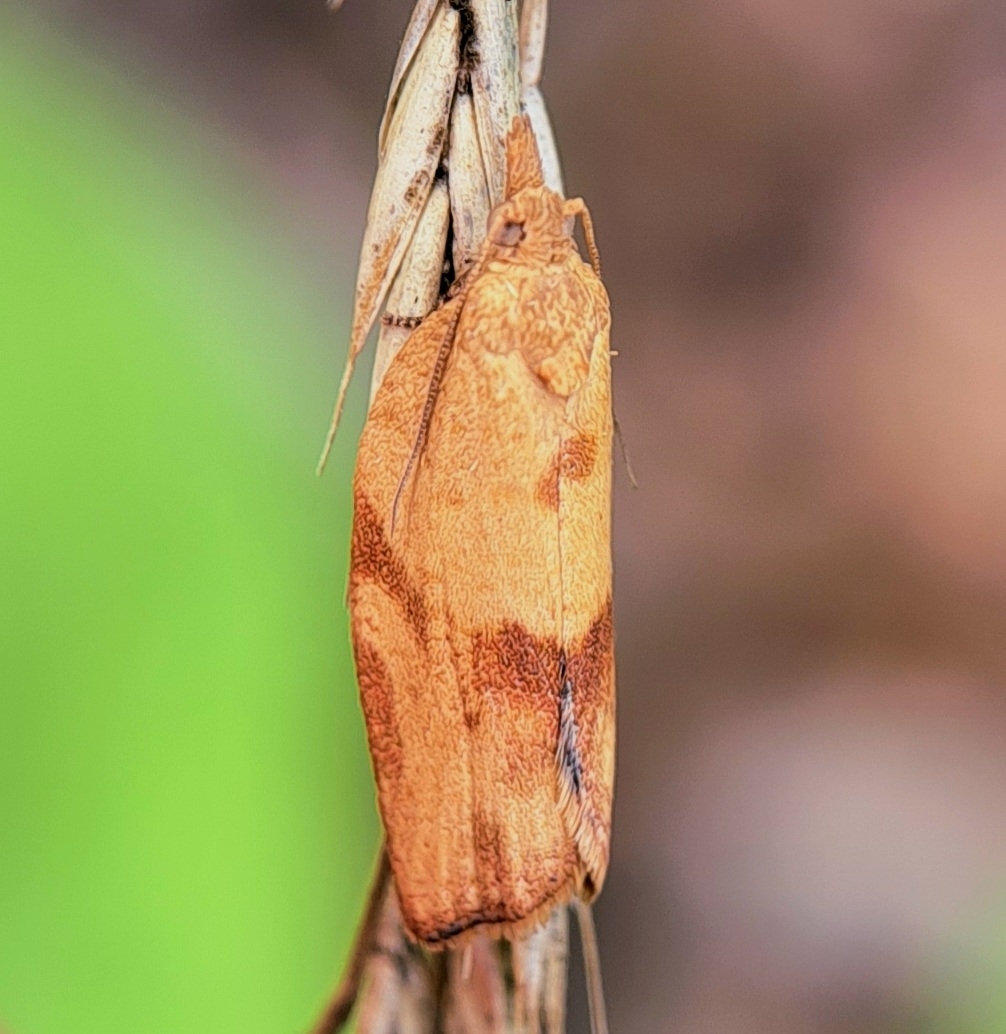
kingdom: Animalia
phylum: Arthropoda
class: Insecta
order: Lepidoptera
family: Tortricidae
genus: Epiphyas
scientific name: Epiphyas postvittana
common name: Light brown apple moth
